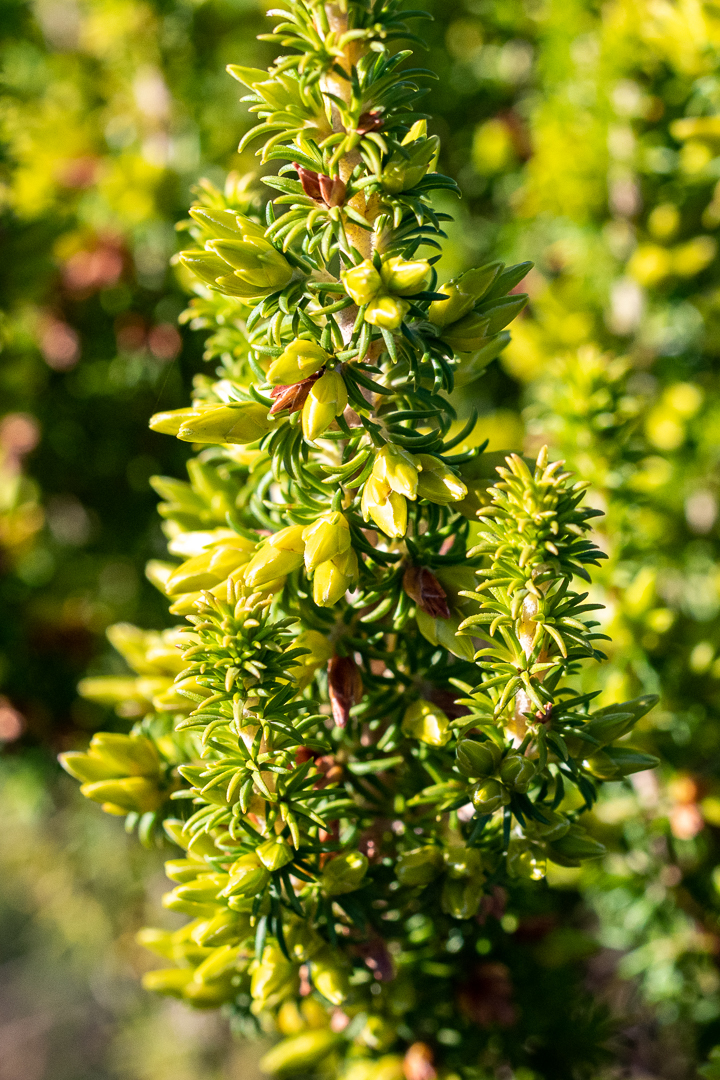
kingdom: Plantae
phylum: Tracheophyta
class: Magnoliopsida
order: Ericales
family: Ericaceae
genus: Erica
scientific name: Erica coccinea
